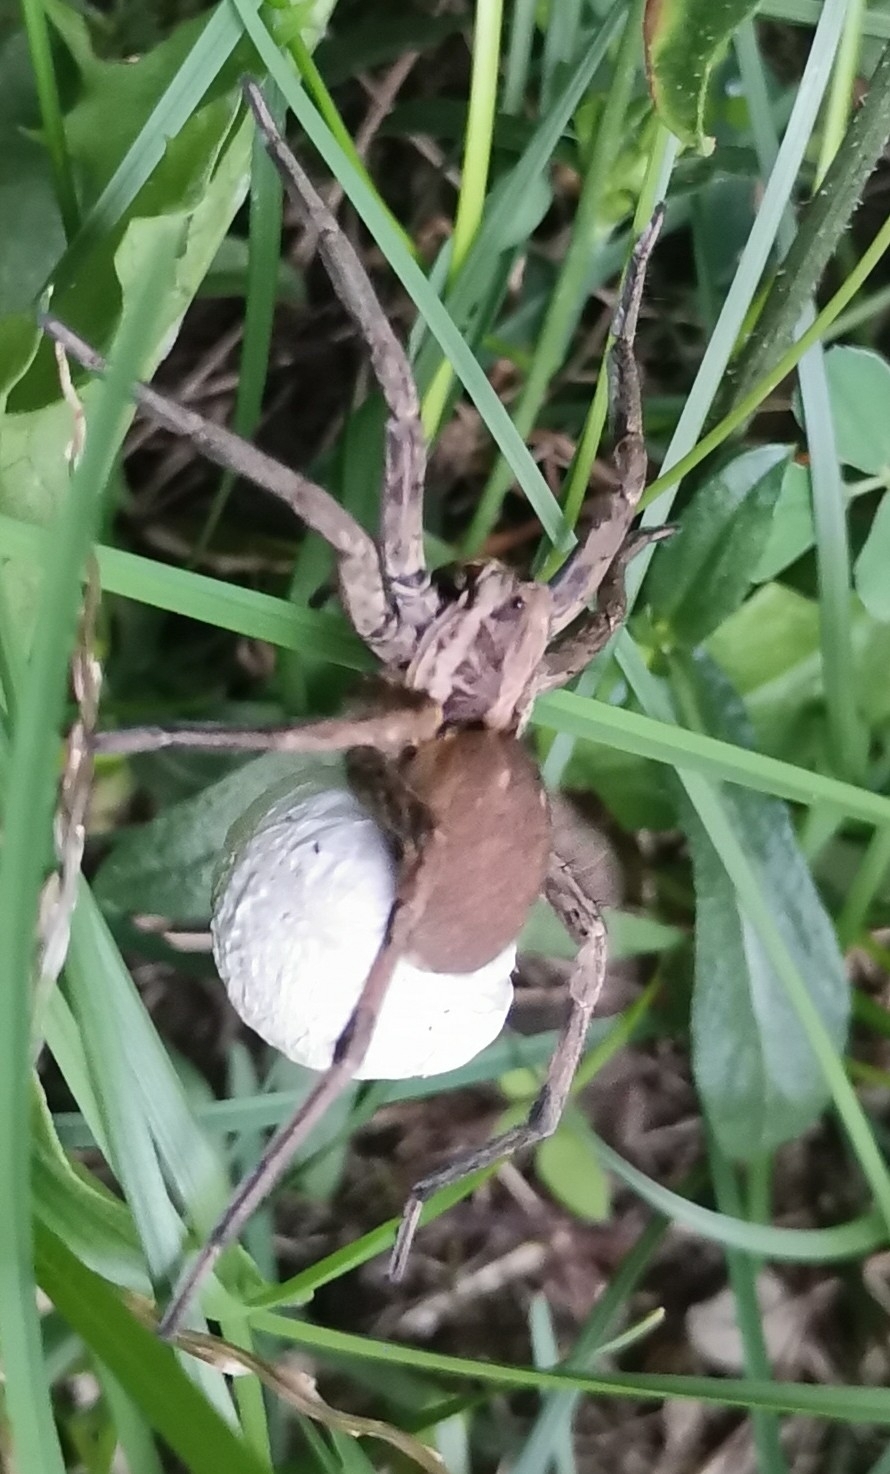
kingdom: Animalia
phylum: Arthropoda
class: Arachnida
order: Araneae
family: Lycosidae
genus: Hogna
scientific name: Hogna radiata
